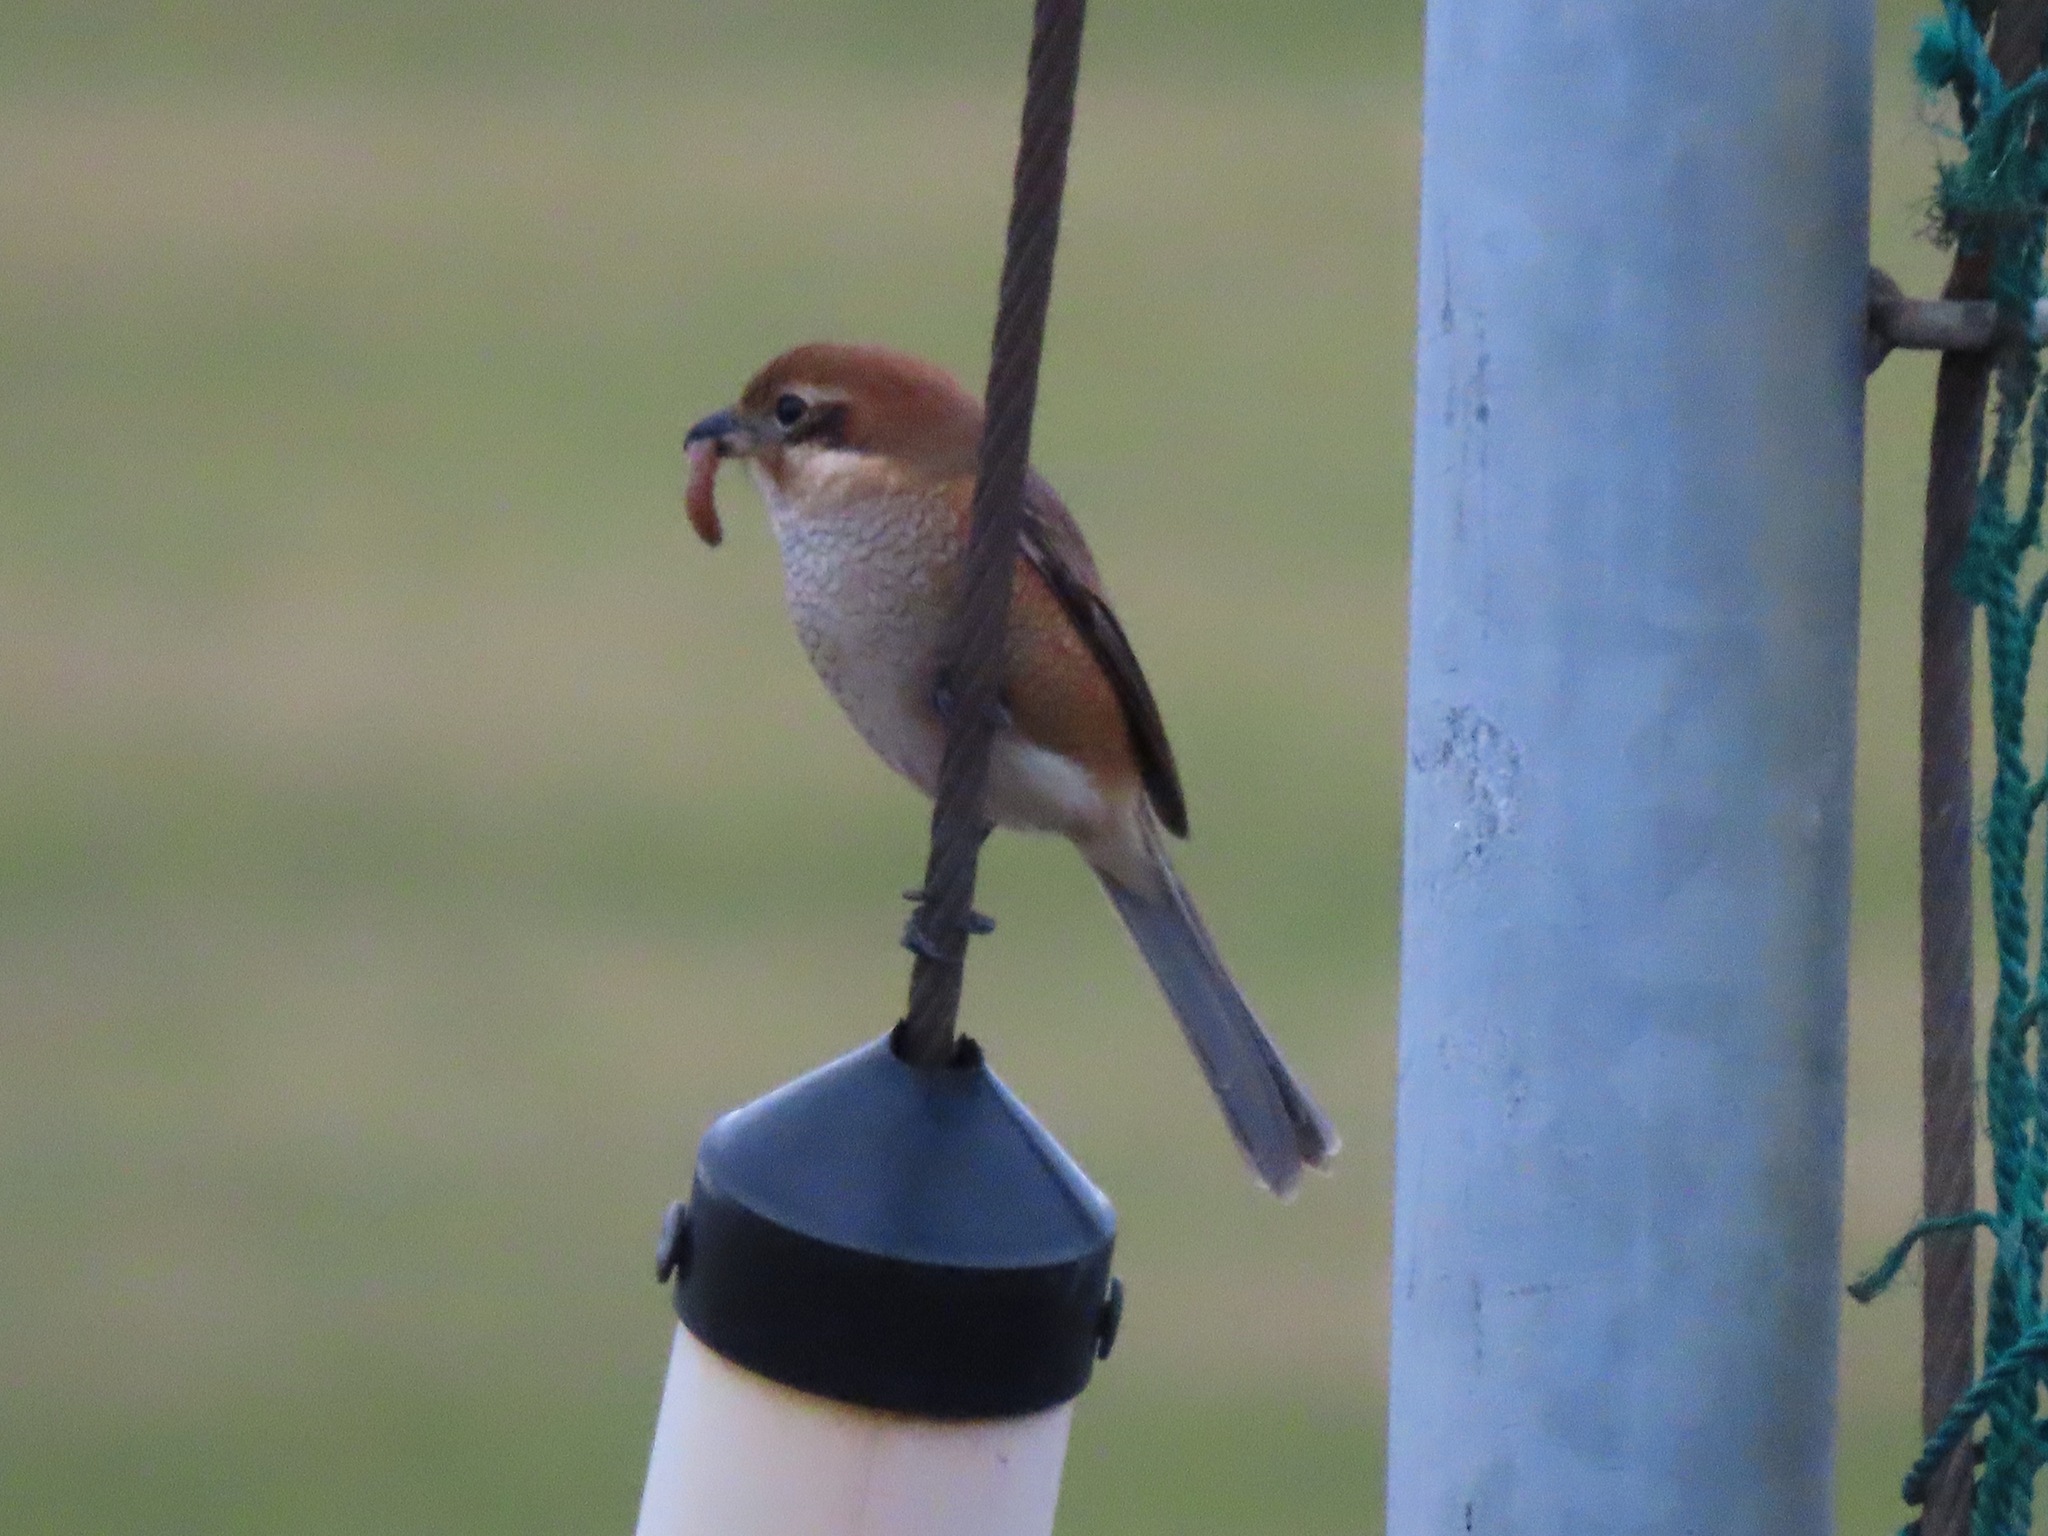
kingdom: Animalia
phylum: Chordata
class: Aves
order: Passeriformes
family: Laniidae
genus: Lanius
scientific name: Lanius bucephalus
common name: Bull-headed shrike
